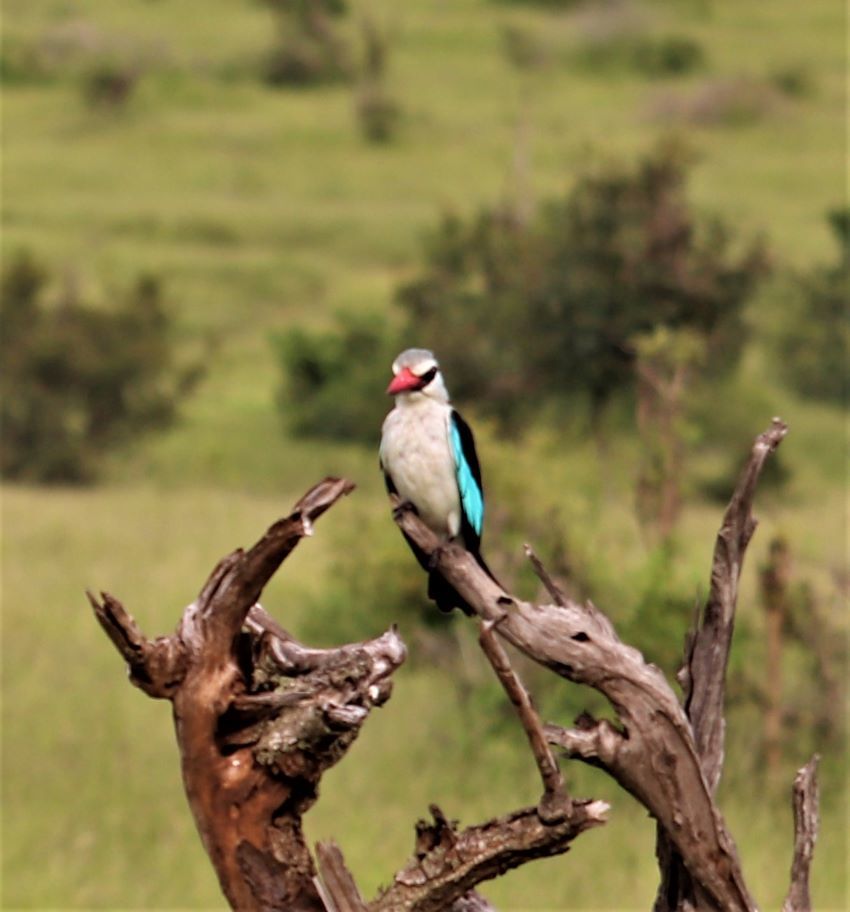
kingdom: Animalia
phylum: Chordata
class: Aves
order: Coraciiformes
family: Alcedinidae
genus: Halcyon
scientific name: Halcyon senegalensis
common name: Woodland kingfisher
